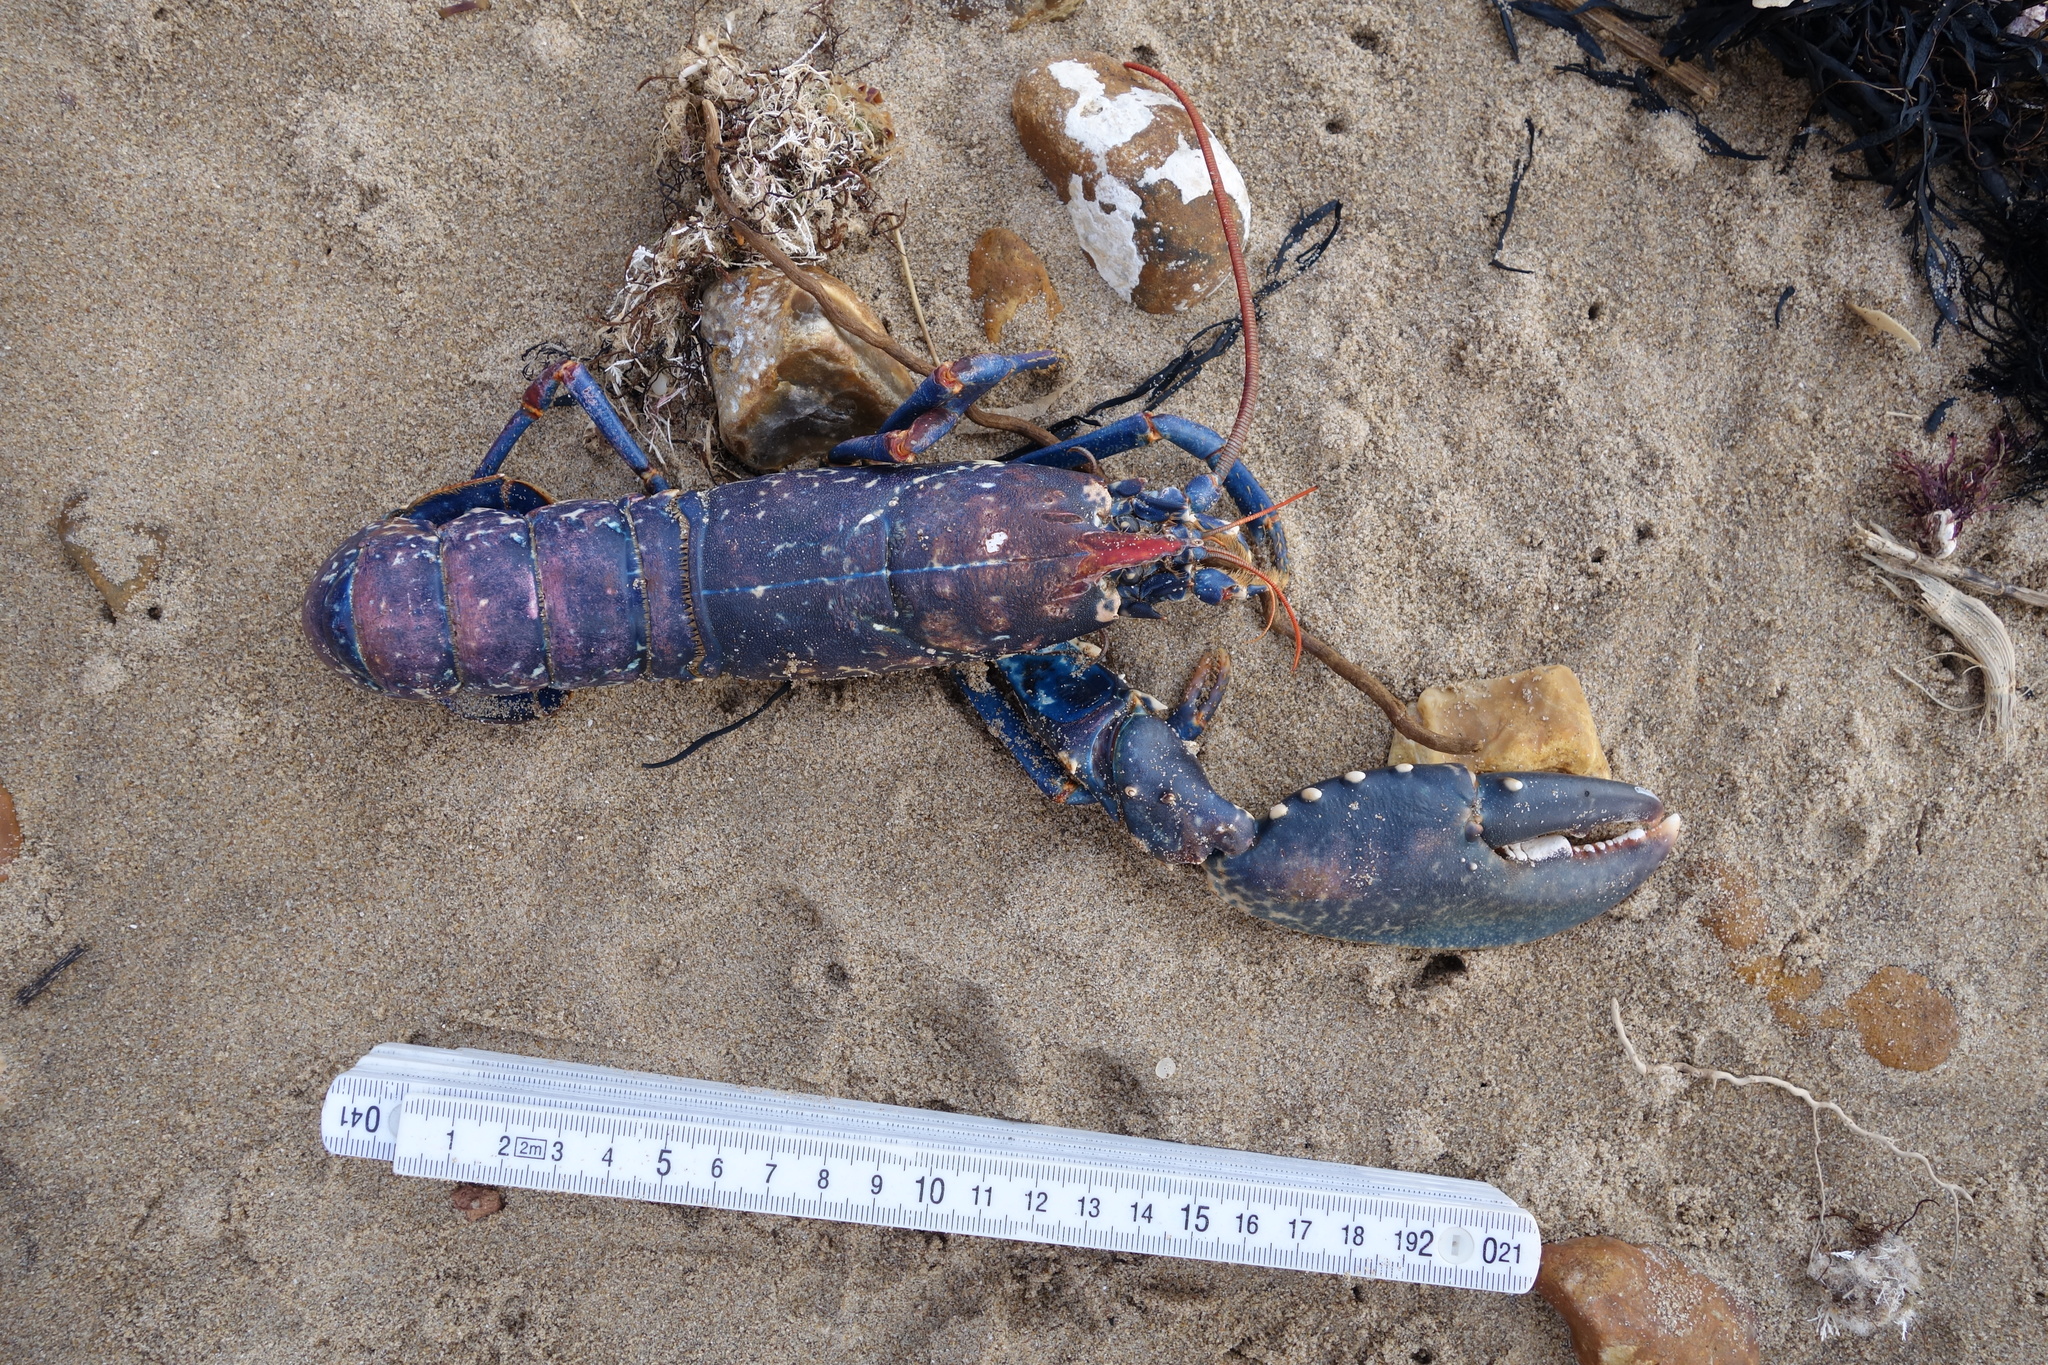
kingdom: Animalia
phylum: Arthropoda
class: Malacostraca
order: Decapoda
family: Nephropidae
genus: Homarus
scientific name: Homarus gammarus
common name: European lobster
